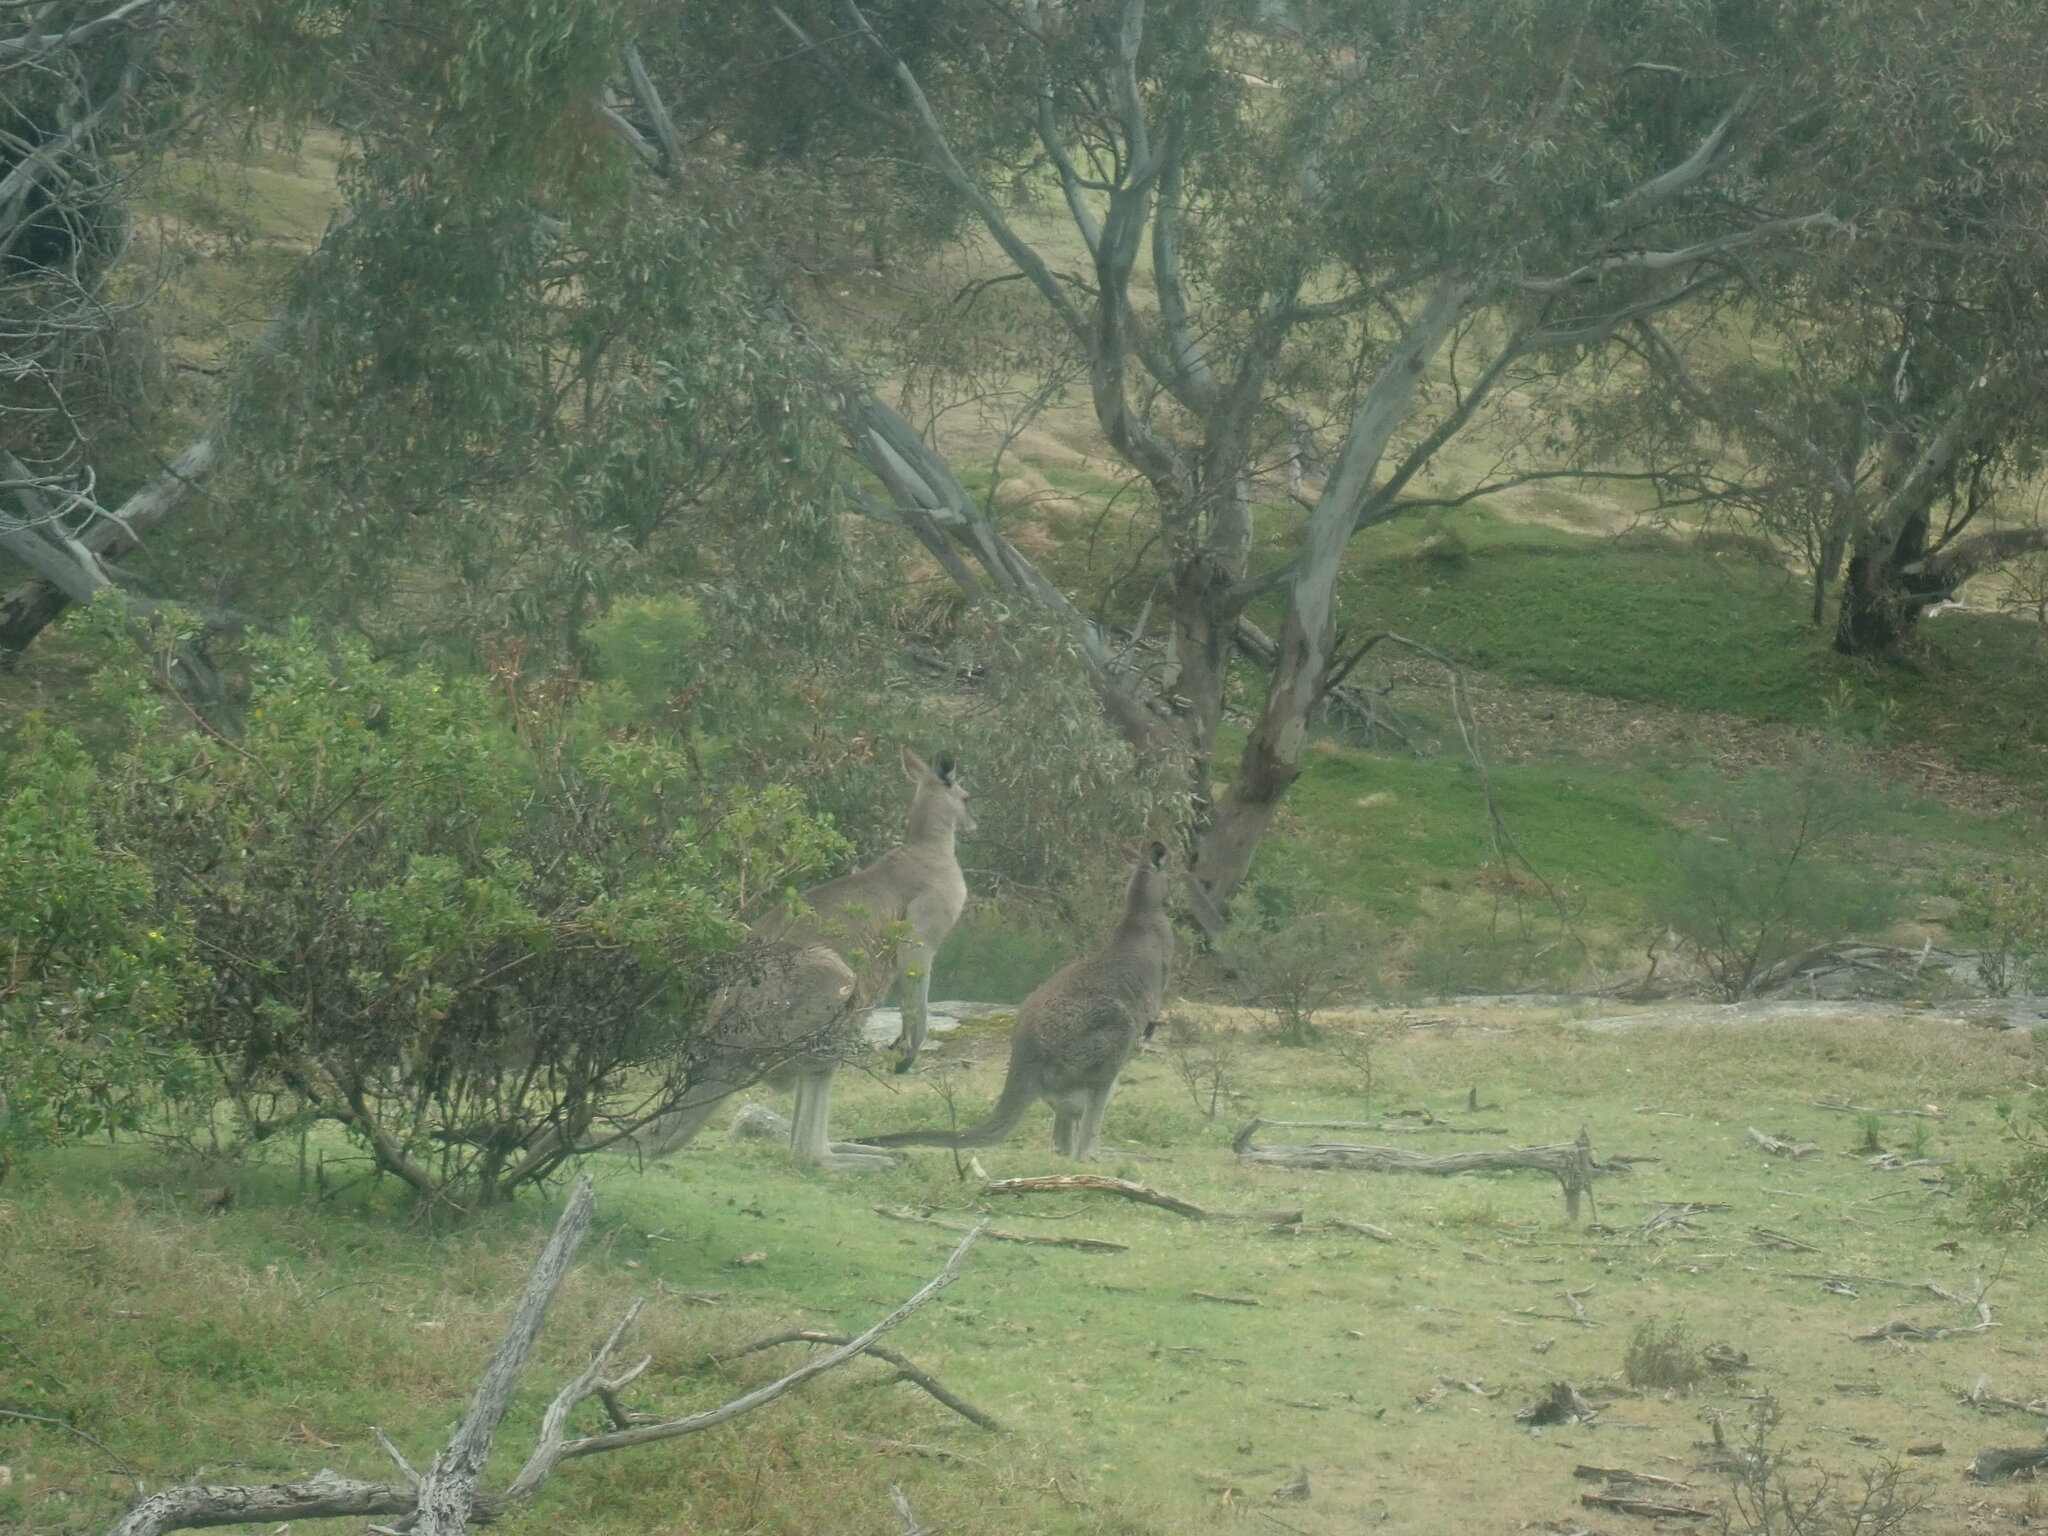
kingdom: Animalia
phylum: Chordata
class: Mammalia
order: Diprotodontia
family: Macropodidae
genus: Macropus
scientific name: Macropus giganteus
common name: Eastern grey kangaroo
